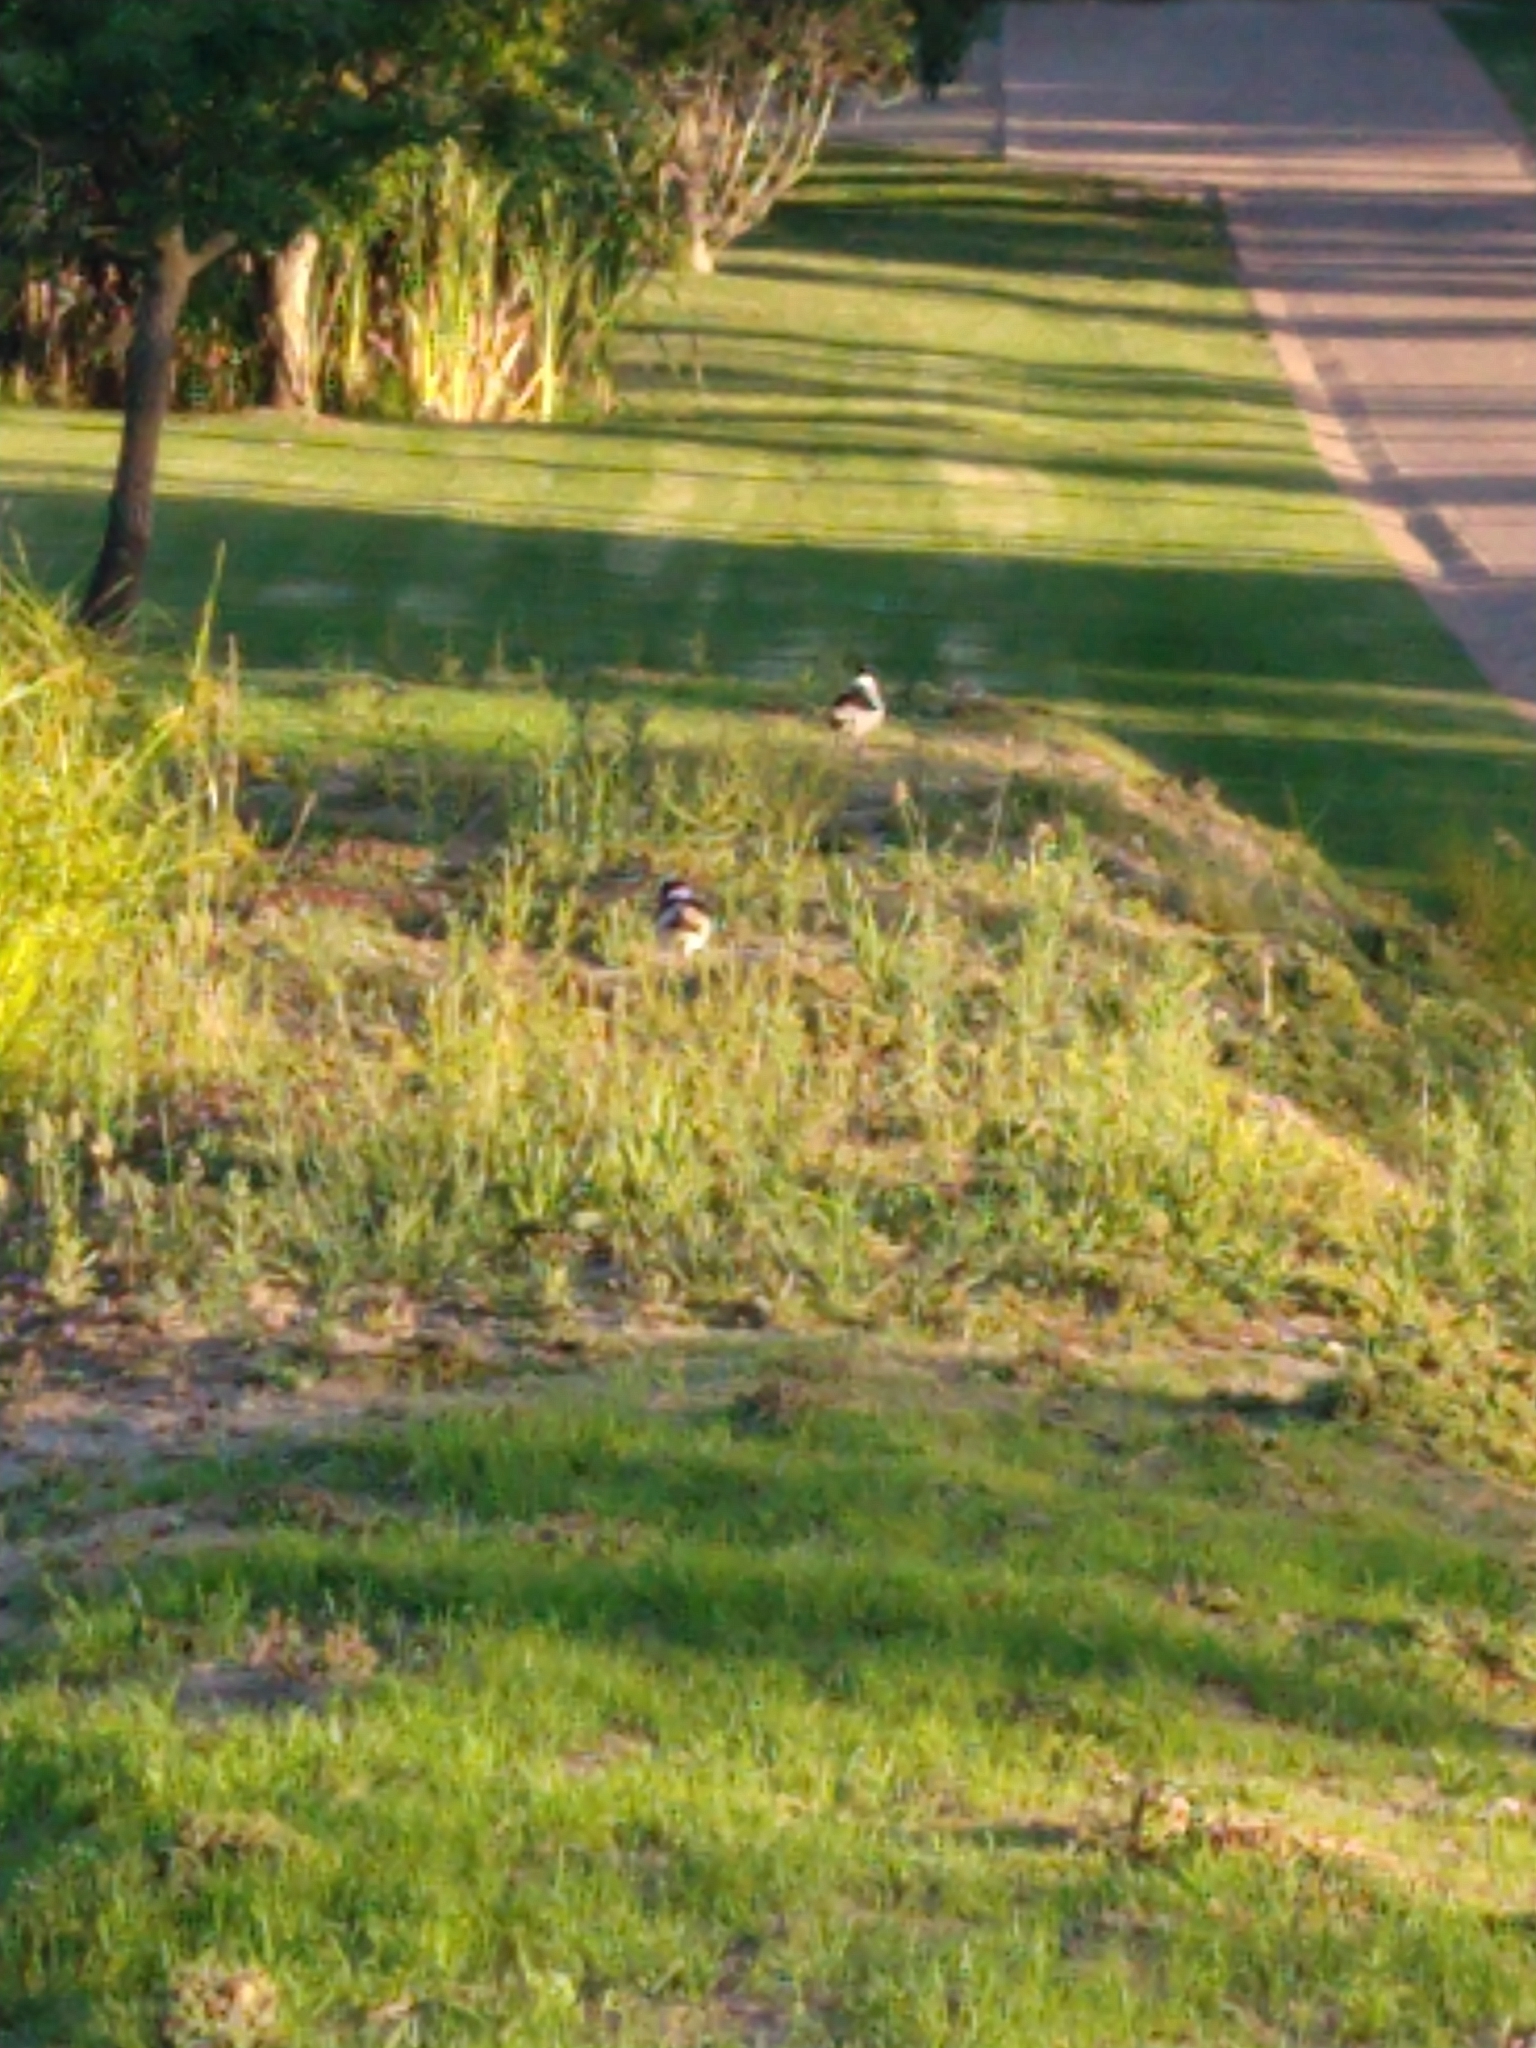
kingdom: Animalia
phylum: Chordata
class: Aves
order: Charadriiformes
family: Charadriidae
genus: Vanellus
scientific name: Vanellus armatus
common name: Blacksmith lapwing
